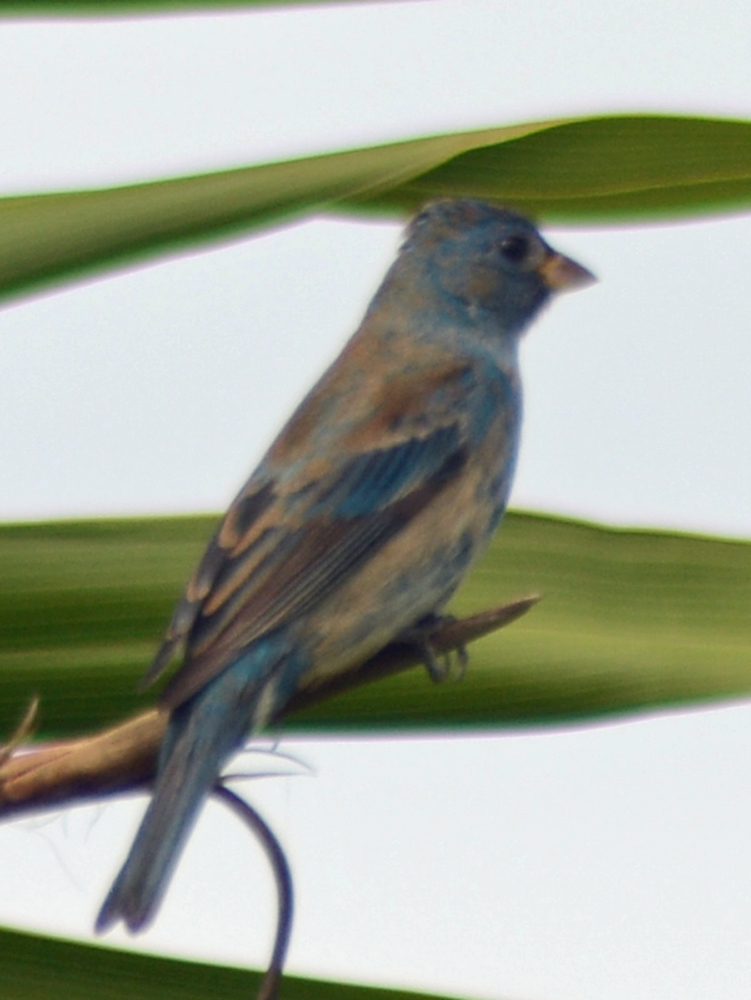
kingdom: Animalia
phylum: Chordata
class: Aves
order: Passeriformes
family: Cardinalidae
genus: Passerina
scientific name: Passerina cyanea
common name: Indigo bunting
